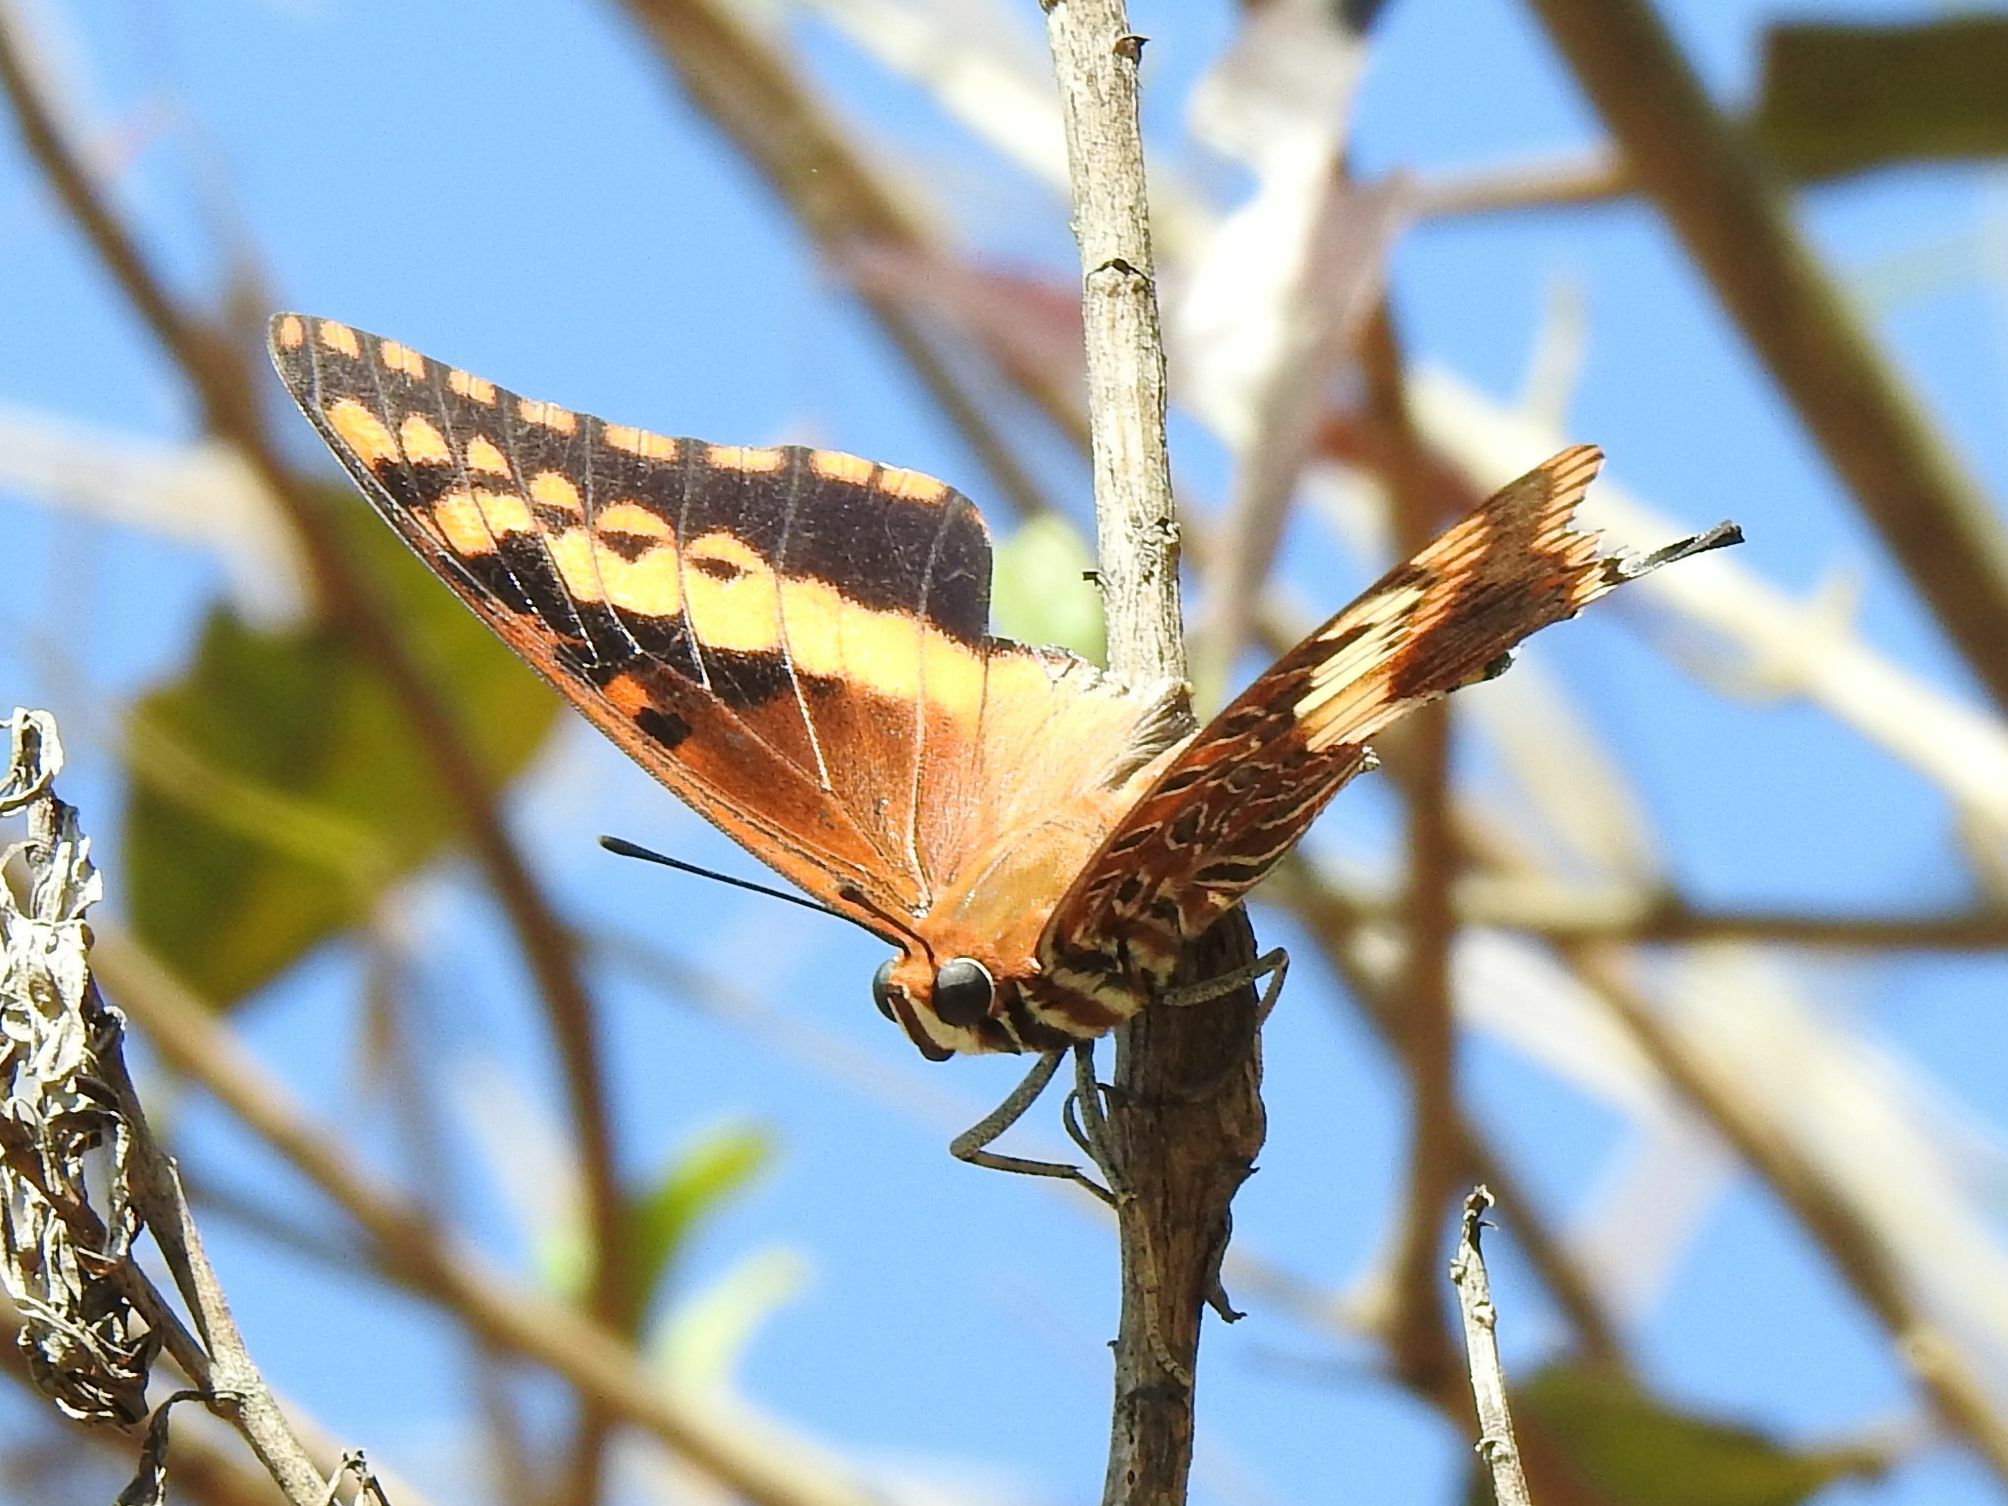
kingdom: Animalia
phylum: Arthropoda
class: Insecta
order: Lepidoptera
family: Nymphalidae
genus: Charaxes
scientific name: Charaxes jasius
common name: Two tailed pasha
